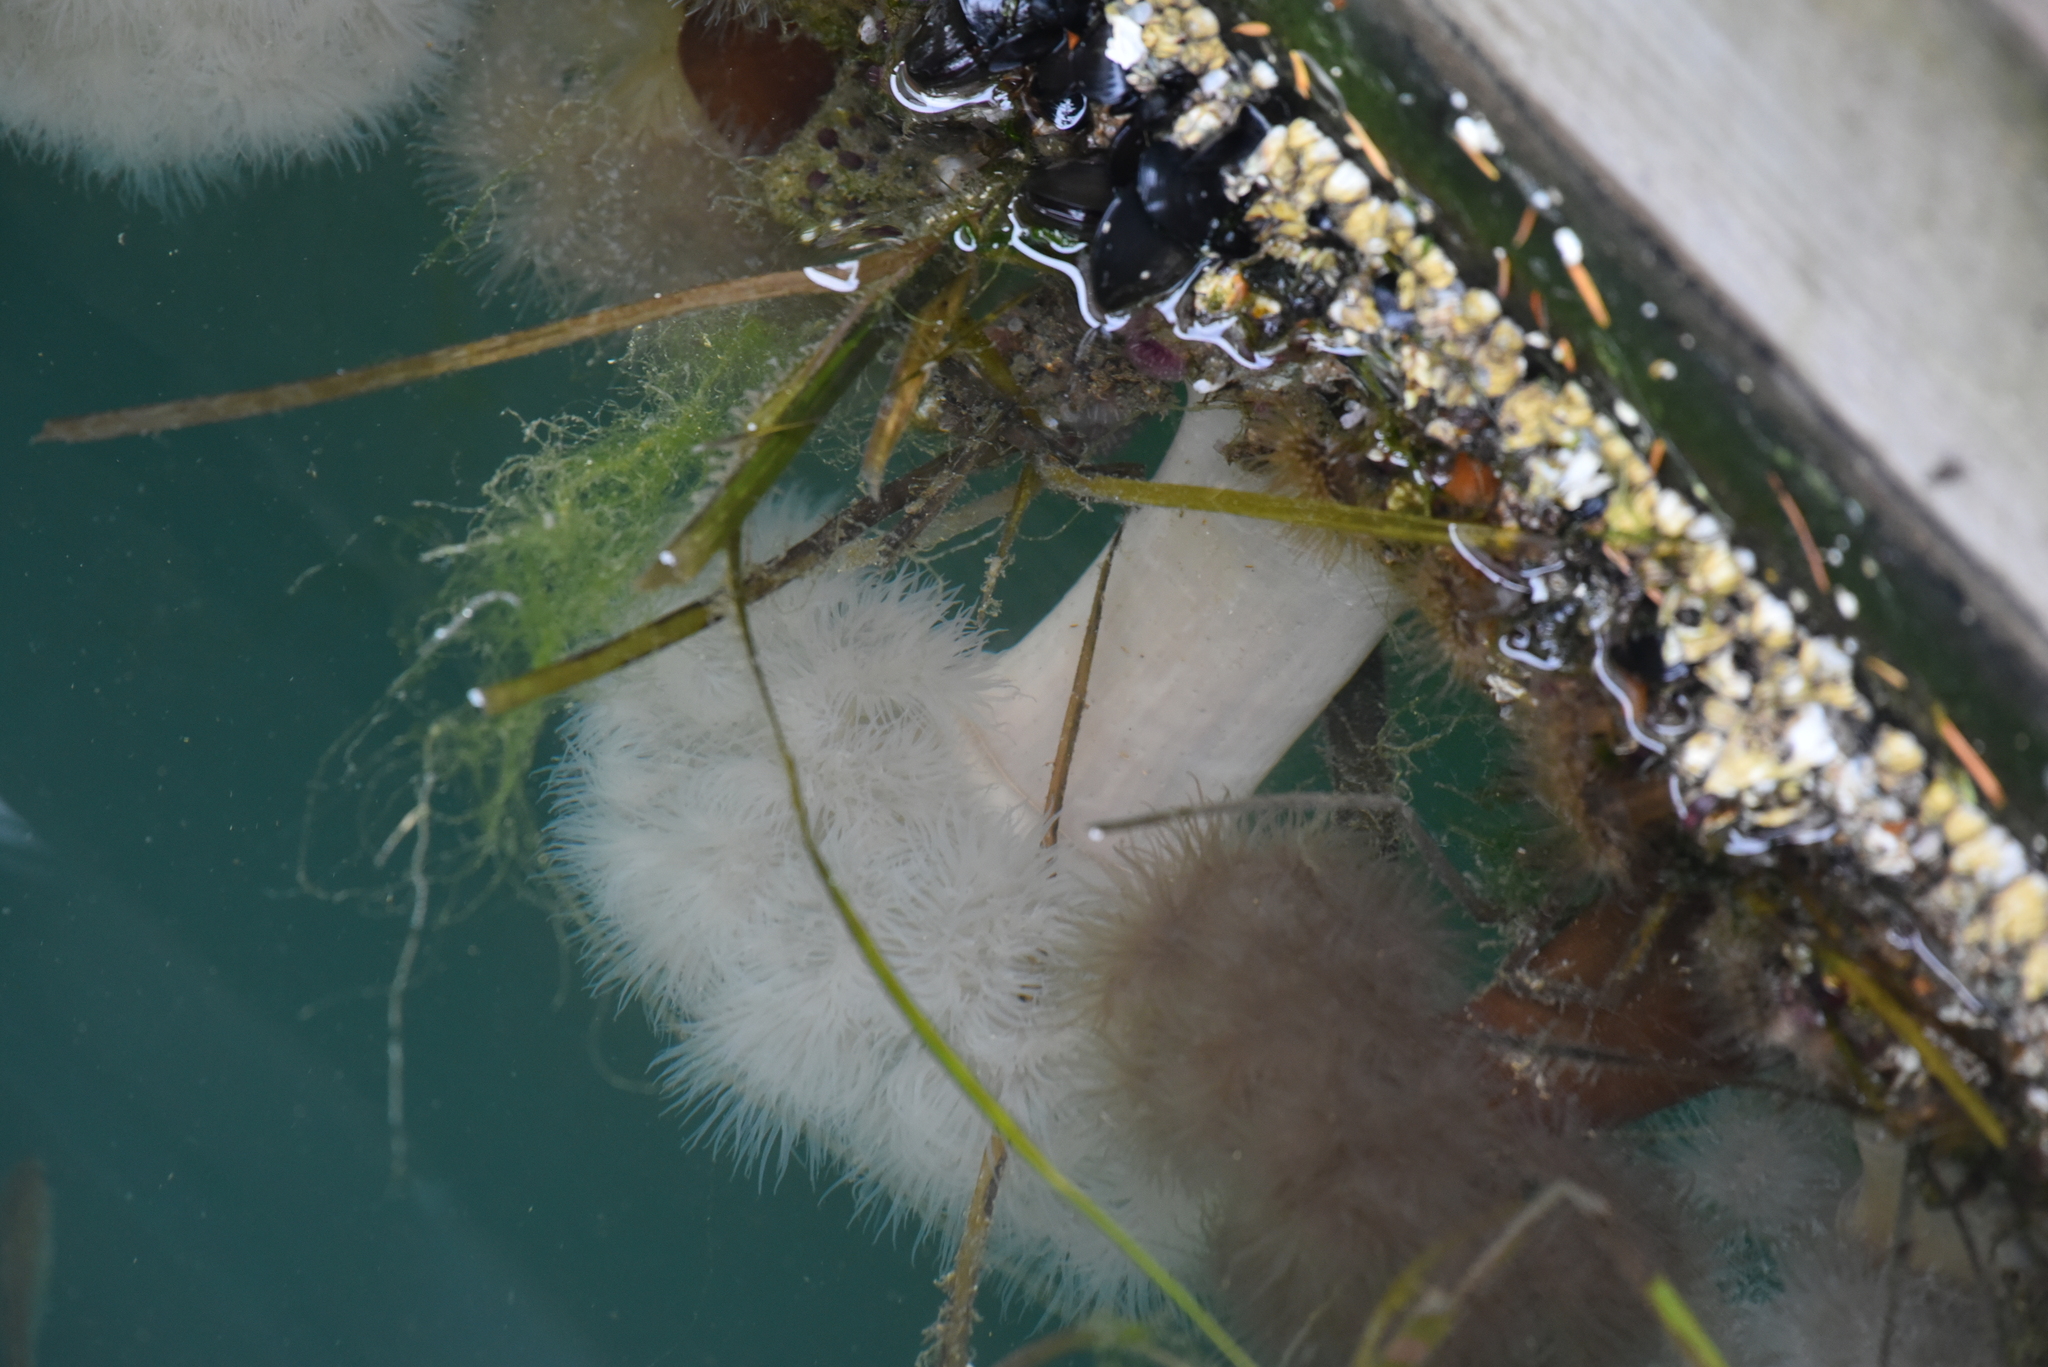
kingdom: Animalia
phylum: Cnidaria
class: Anthozoa
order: Actiniaria
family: Metridiidae
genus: Metridium
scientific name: Metridium senile
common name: Clonal plumose anemone
